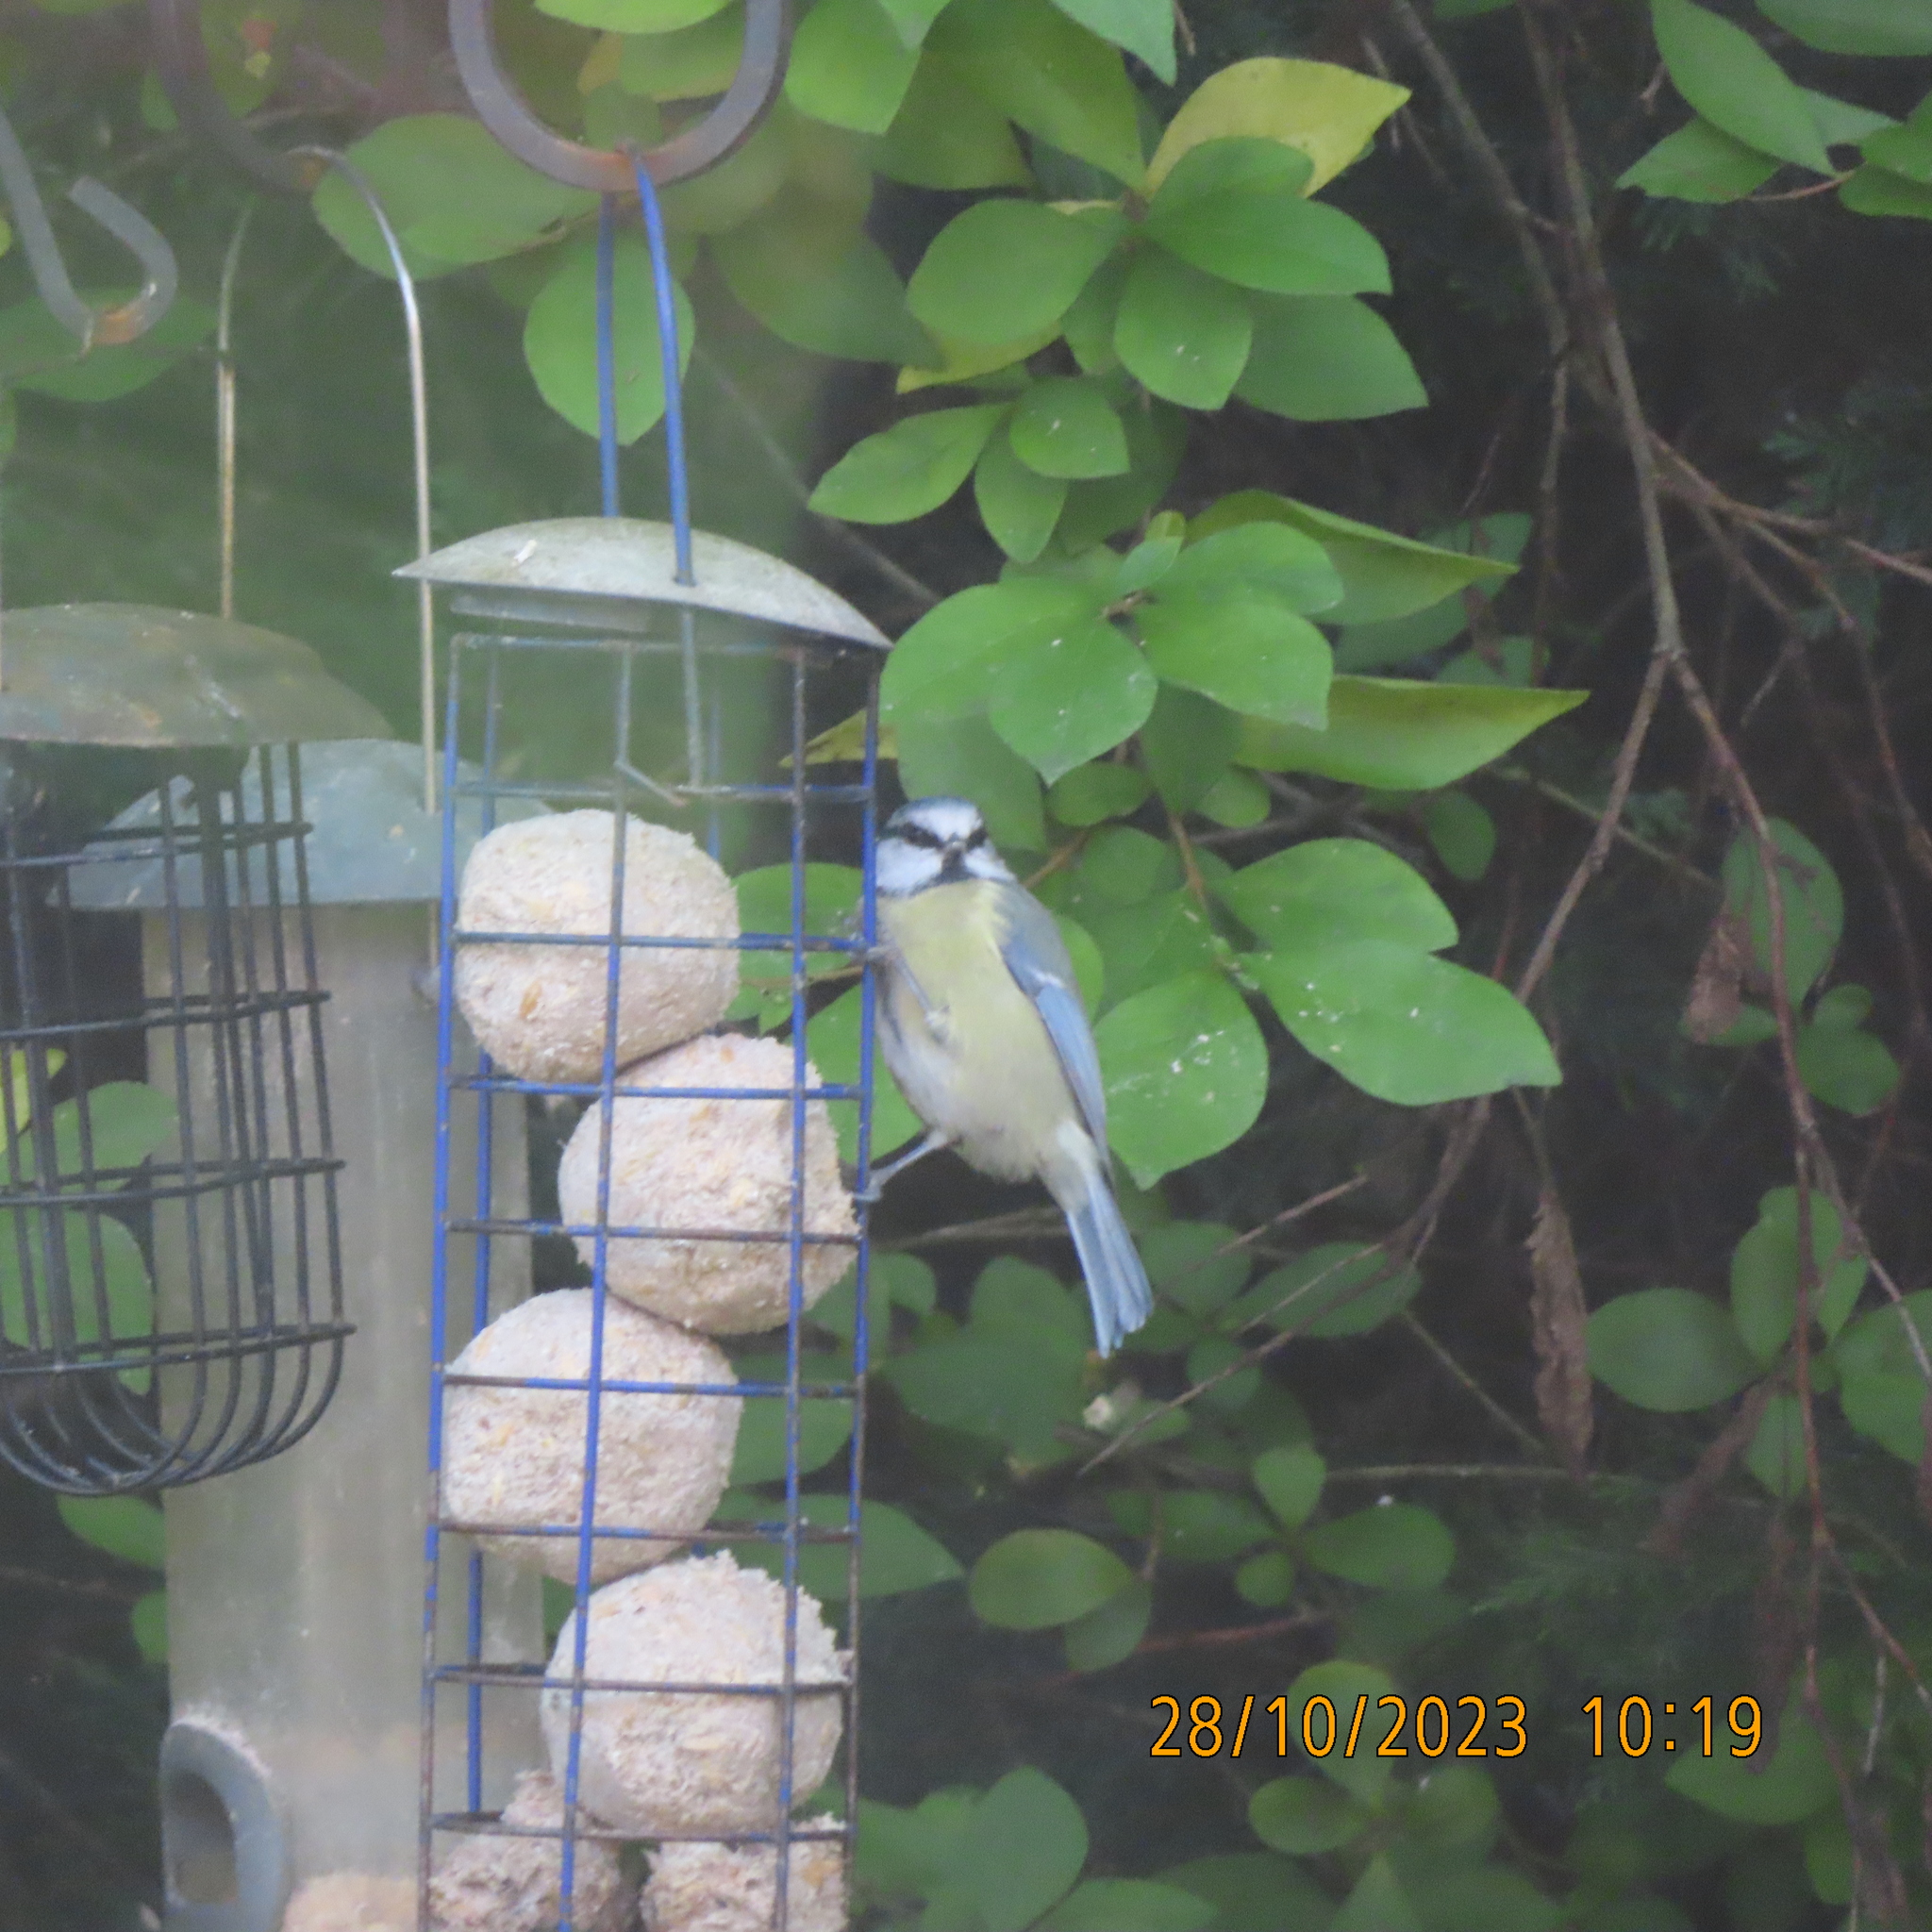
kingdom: Animalia
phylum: Chordata
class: Aves
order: Passeriformes
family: Paridae
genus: Cyanistes
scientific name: Cyanistes caeruleus
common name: Eurasian blue tit
